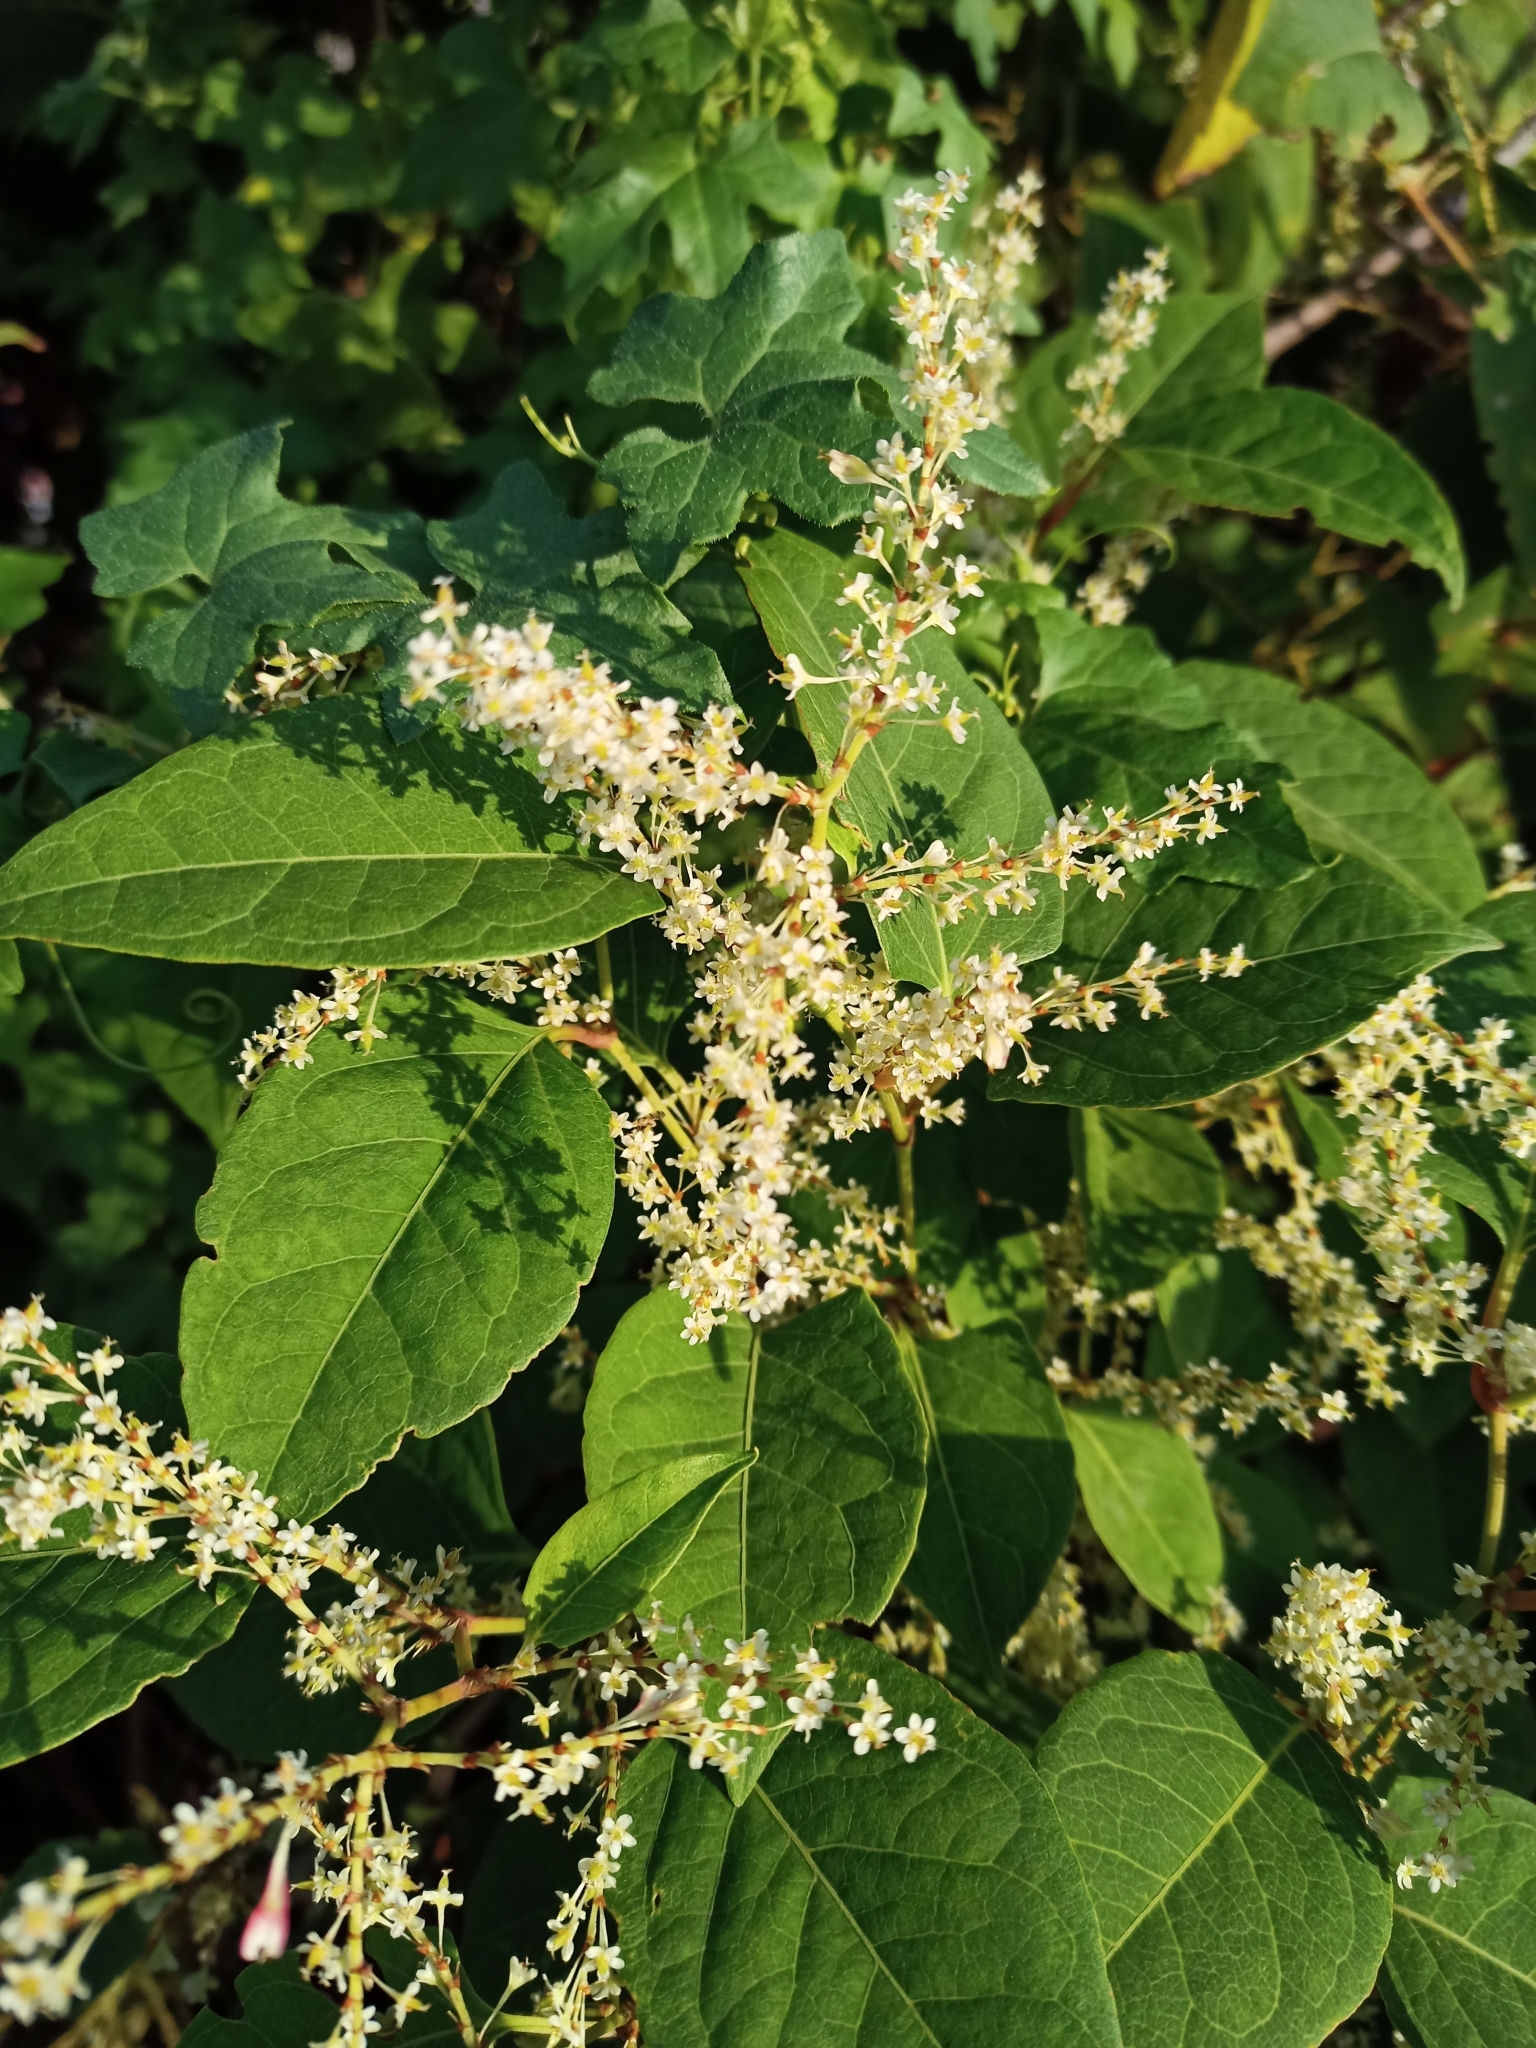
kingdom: Plantae
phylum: Tracheophyta
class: Magnoliopsida
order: Caryophyllales
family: Polygonaceae
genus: Reynoutria
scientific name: Reynoutria japonica
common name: Japanese knotweed
